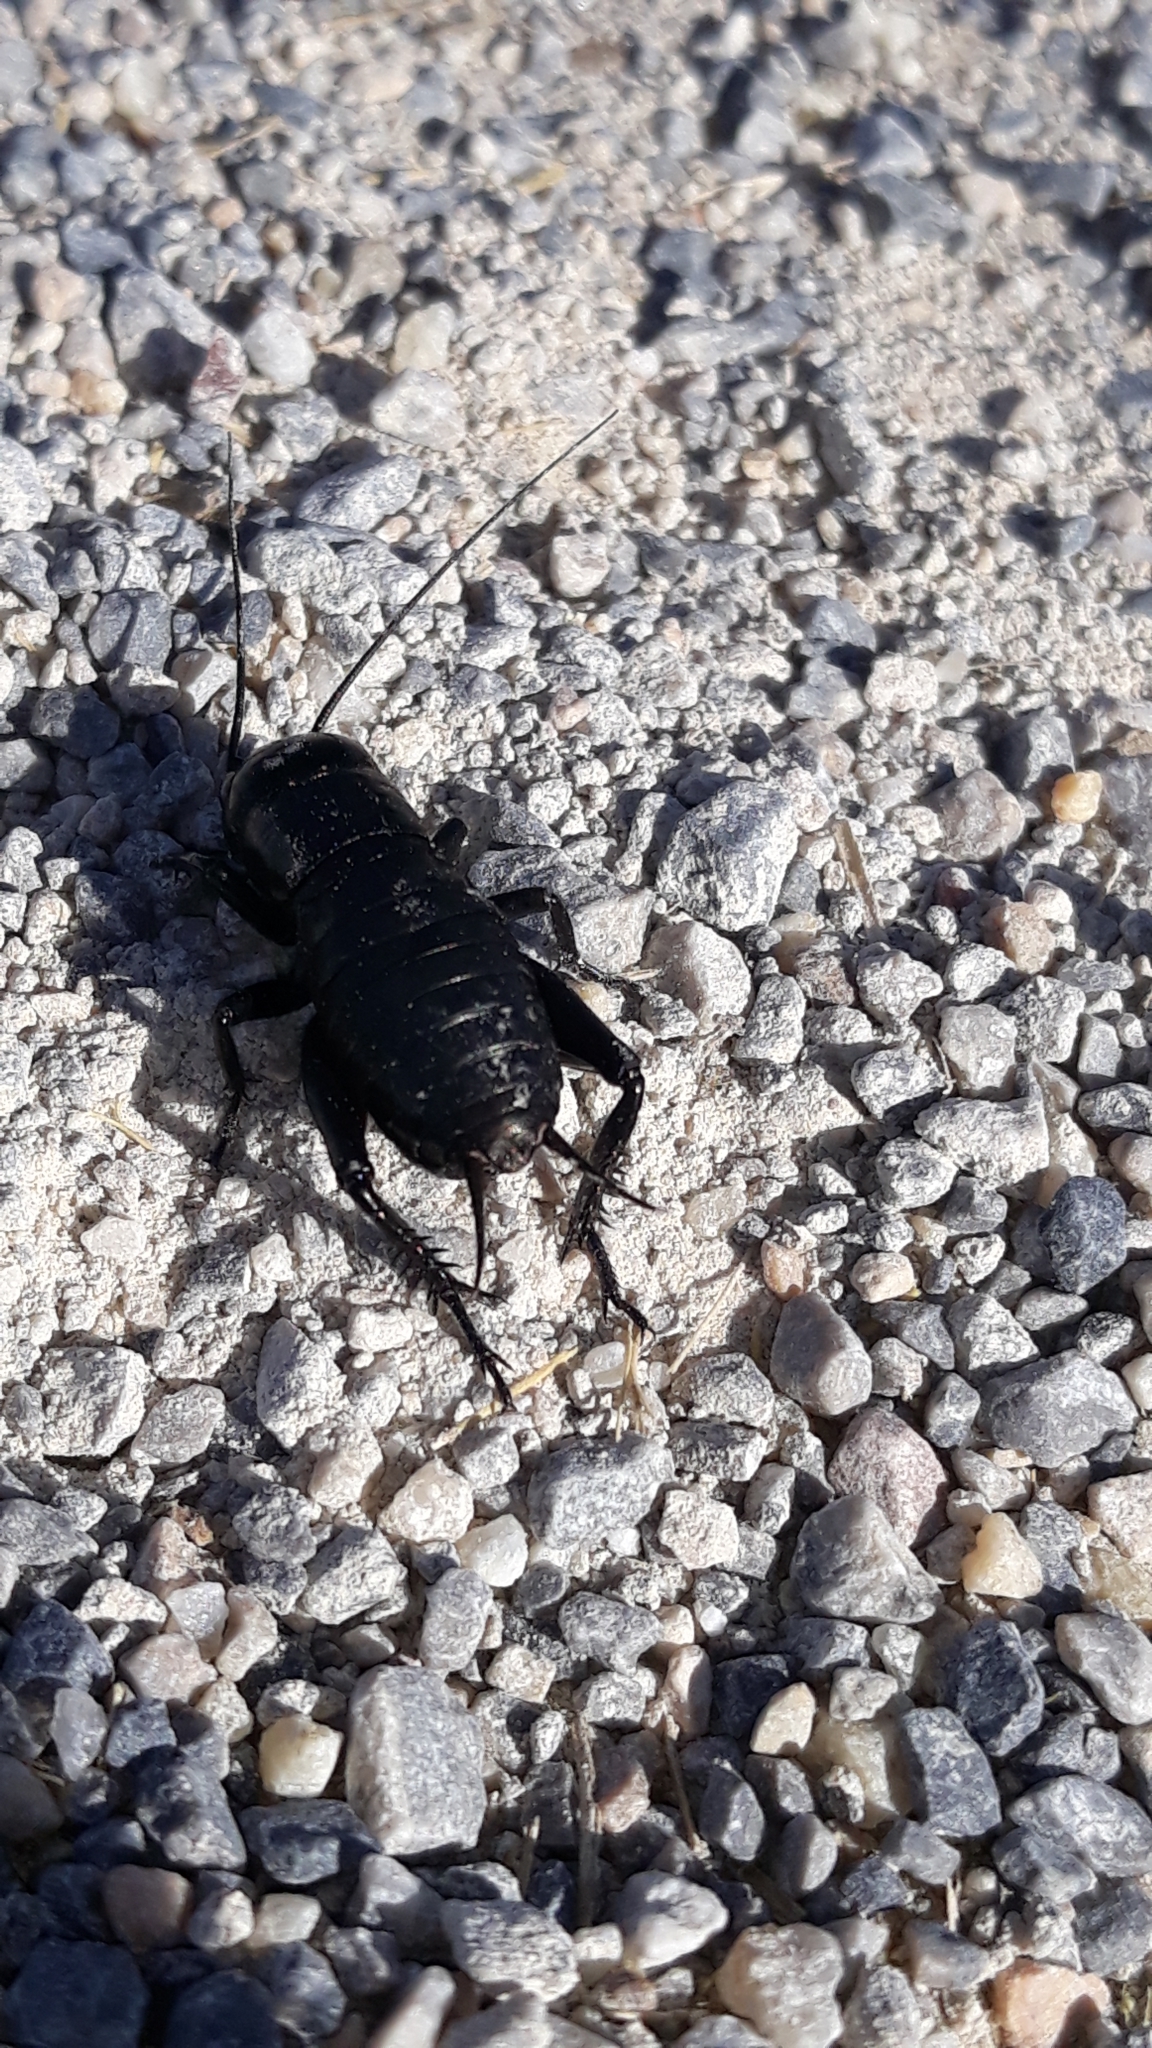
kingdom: Animalia
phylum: Arthropoda
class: Insecta
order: Orthoptera
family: Gryllidae
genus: Gryllus
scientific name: Gryllus campestris
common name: Field cricket
